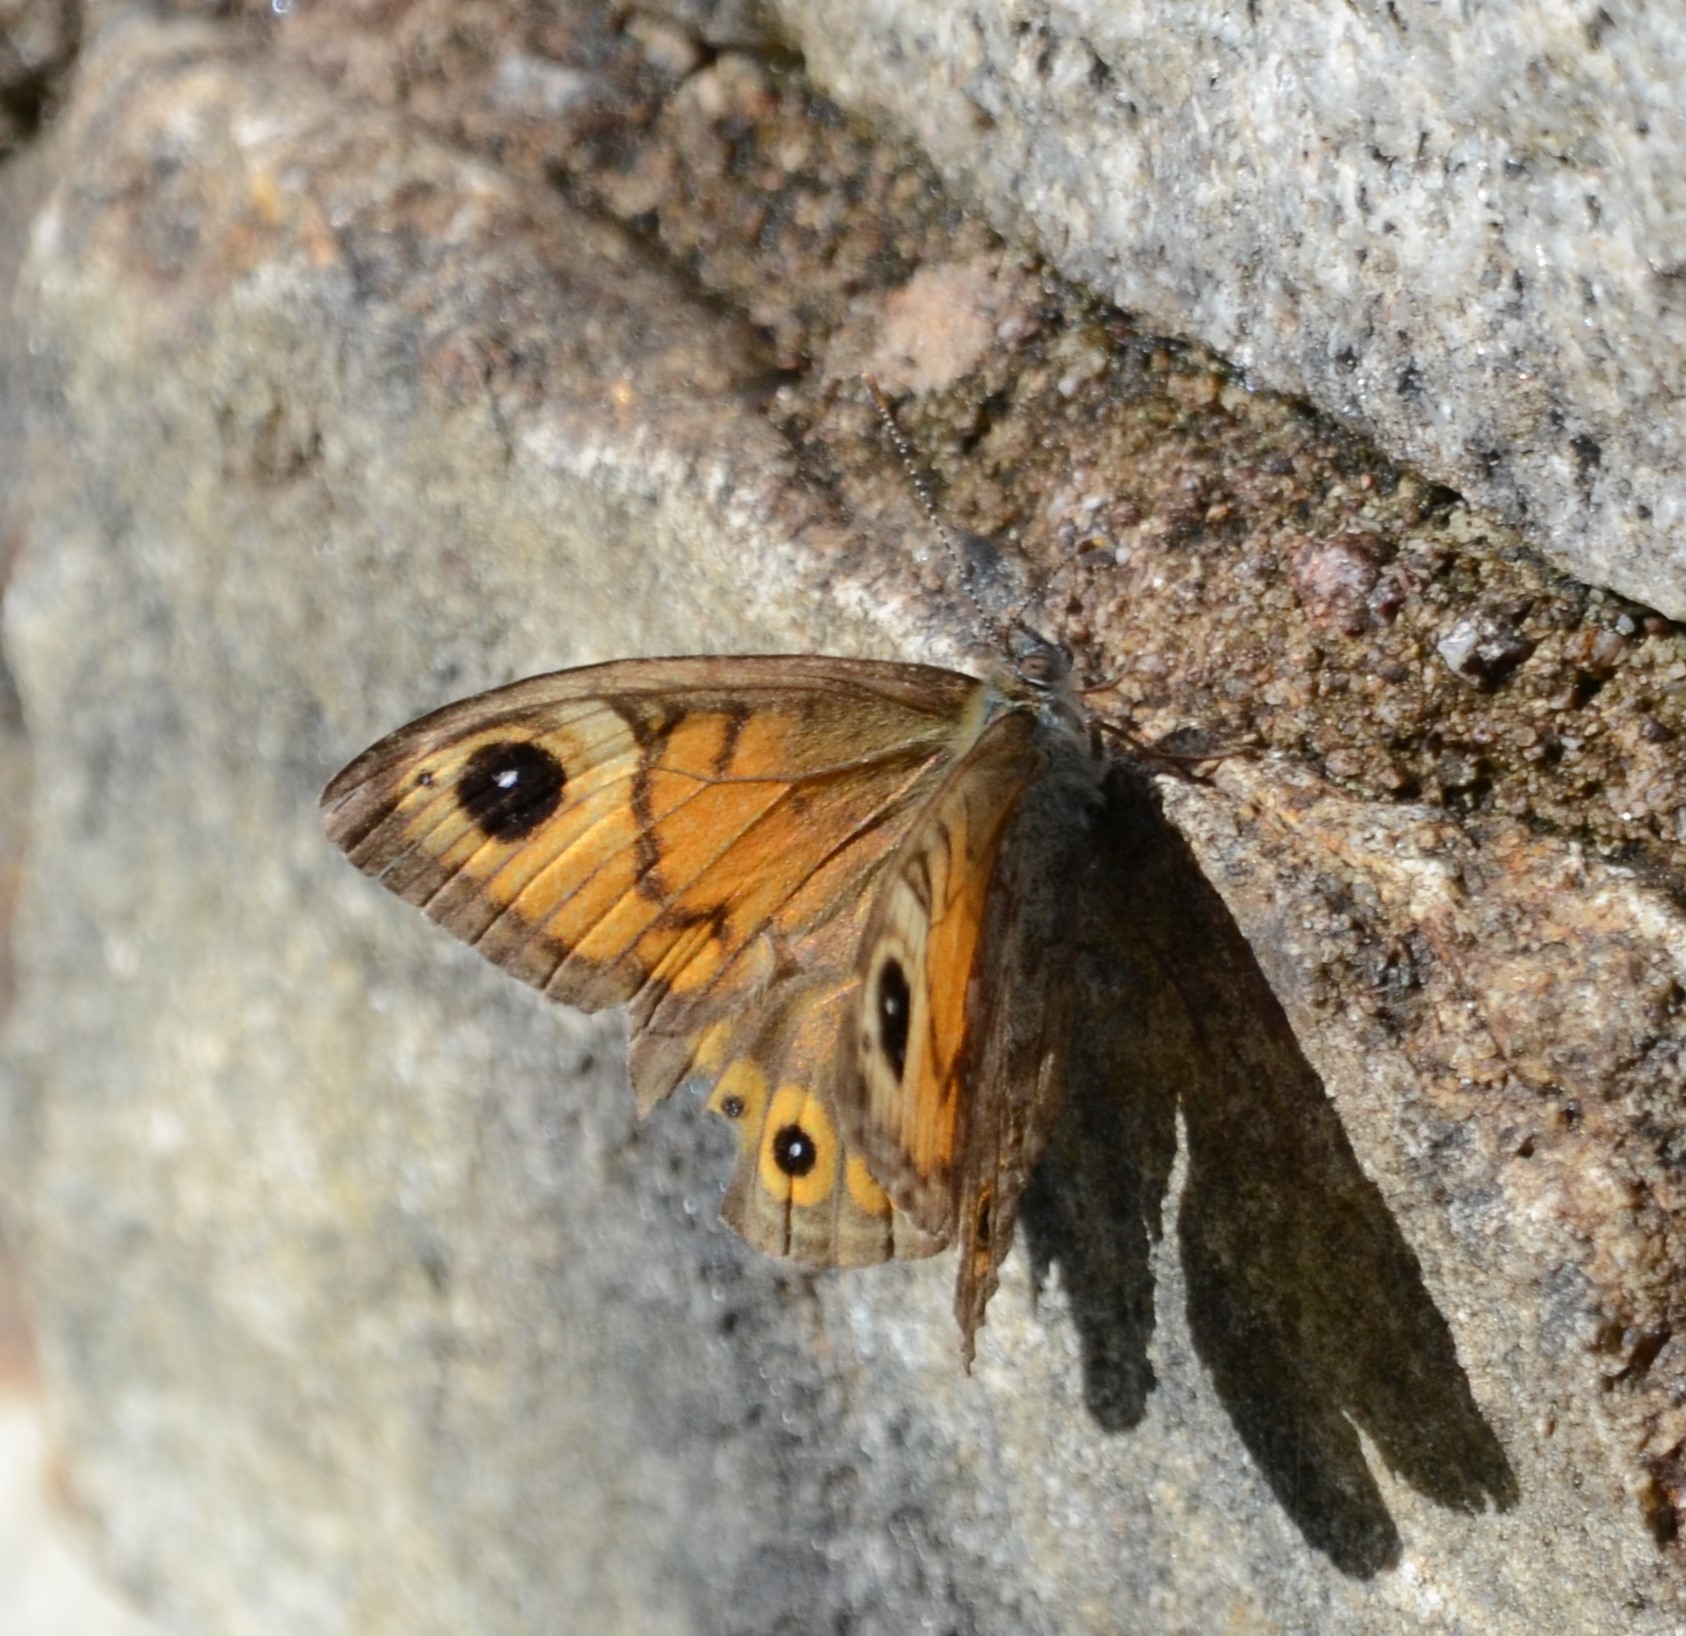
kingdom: Animalia
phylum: Arthropoda
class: Insecta
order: Lepidoptera
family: Nymphalidae
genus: Pararge
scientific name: Pararge Lasiommata maera
